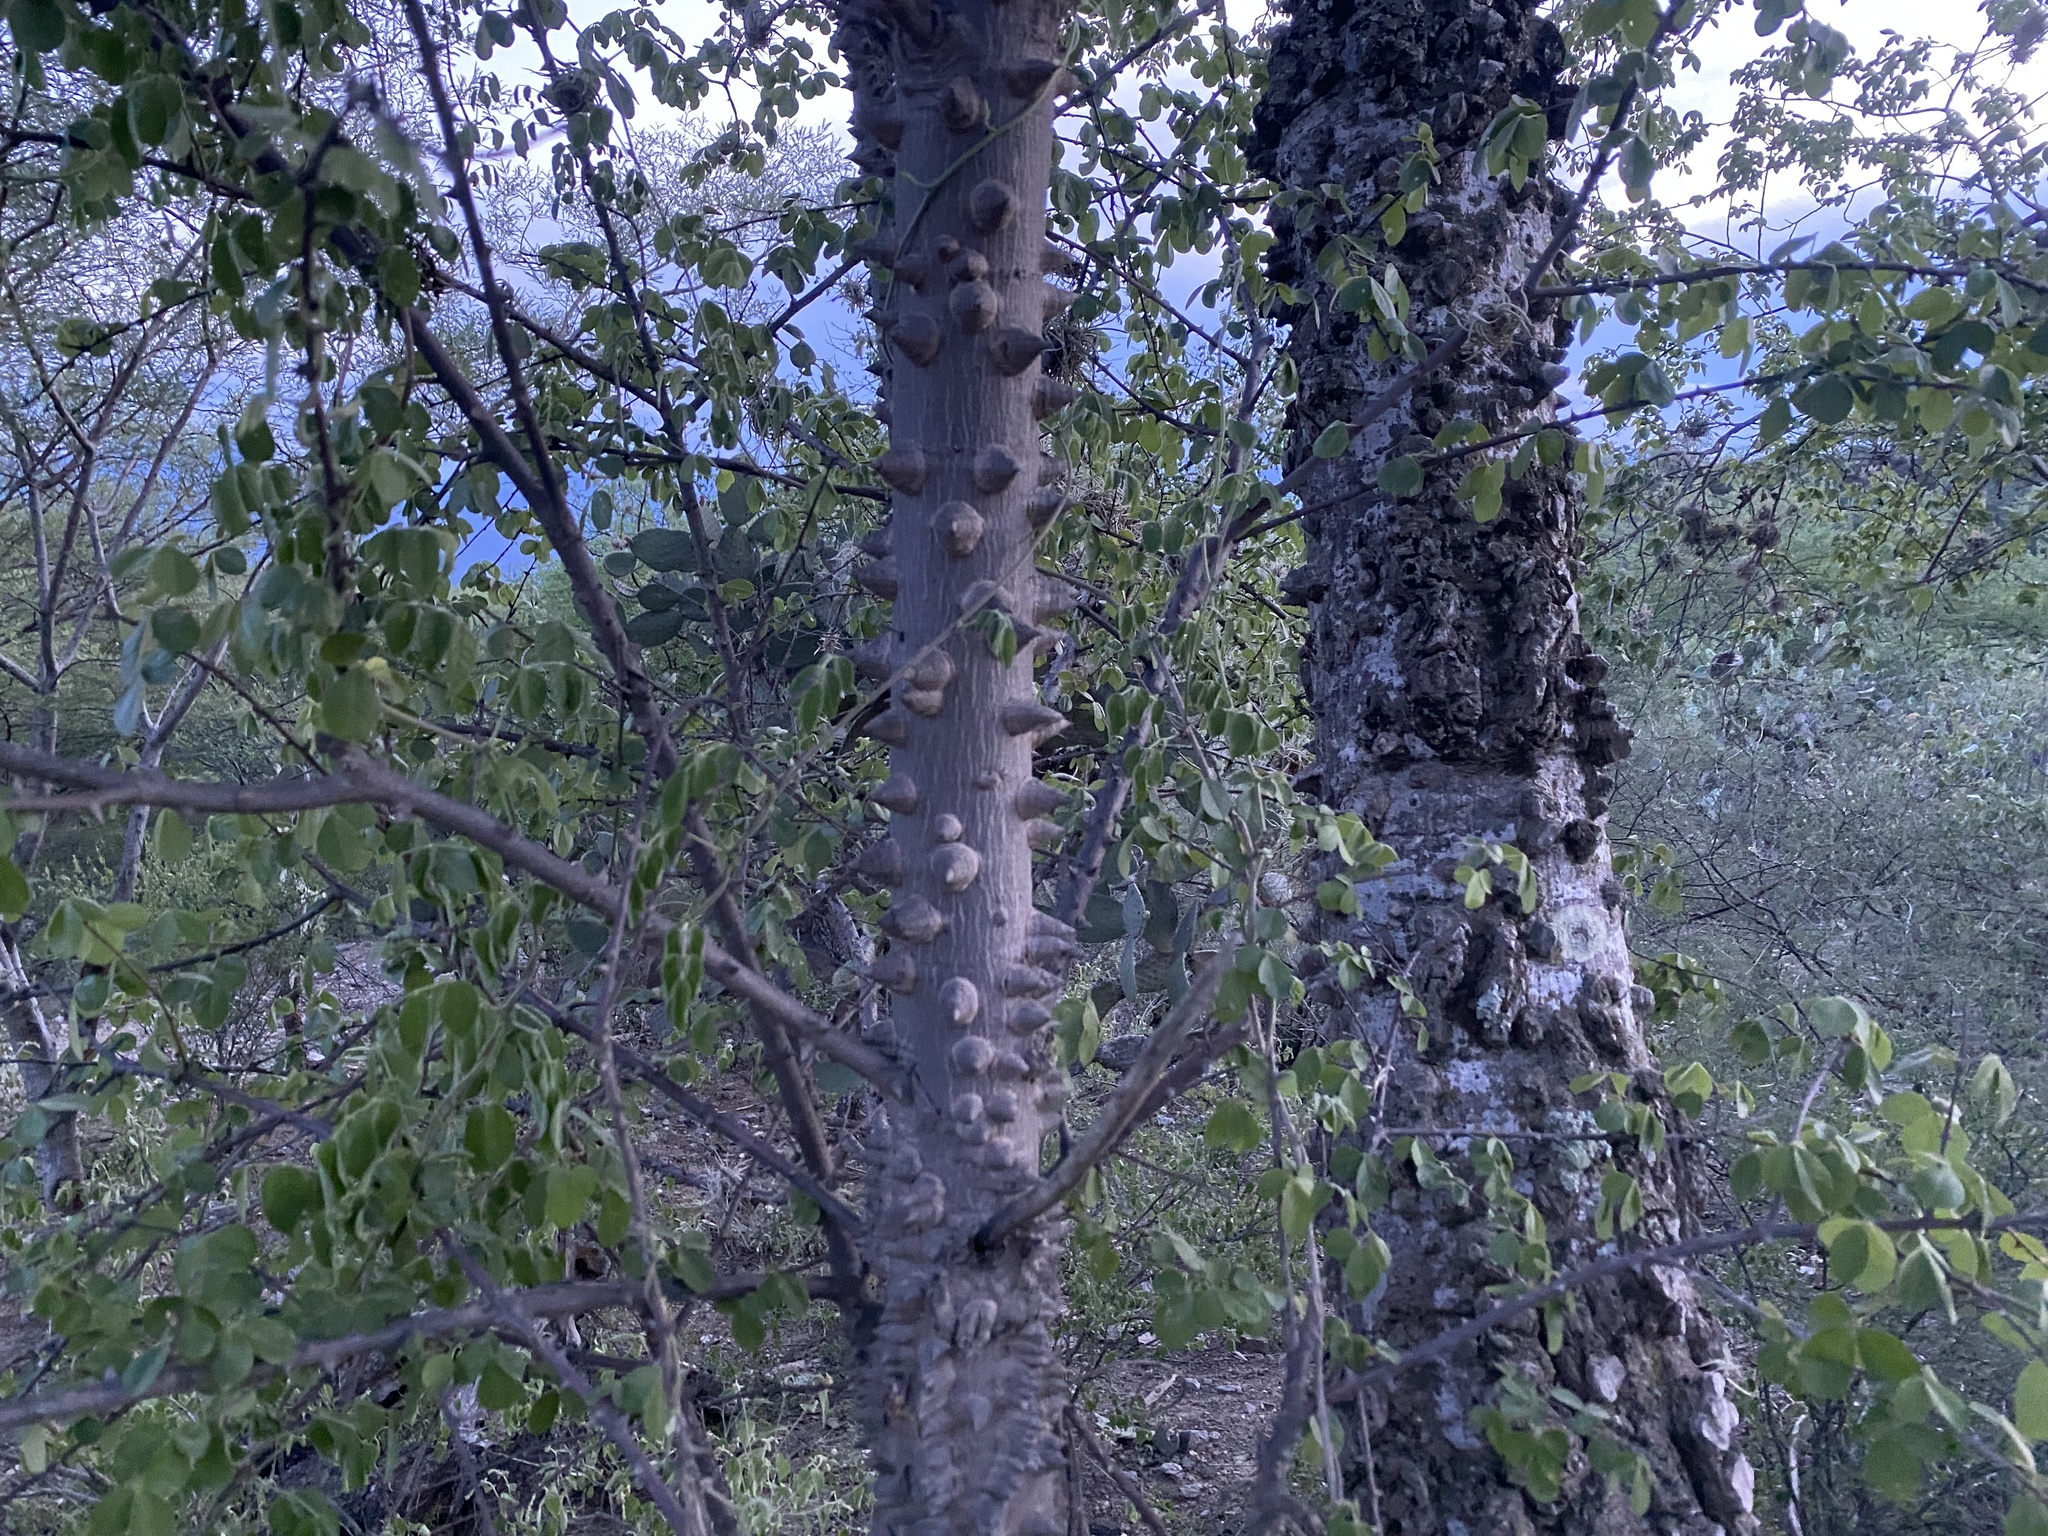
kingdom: Plantae
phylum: Tracheophyta
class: Magnoliopsida
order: Malvales
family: Malvaceae
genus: Ceiba
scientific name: Ceiba aesculifolia
